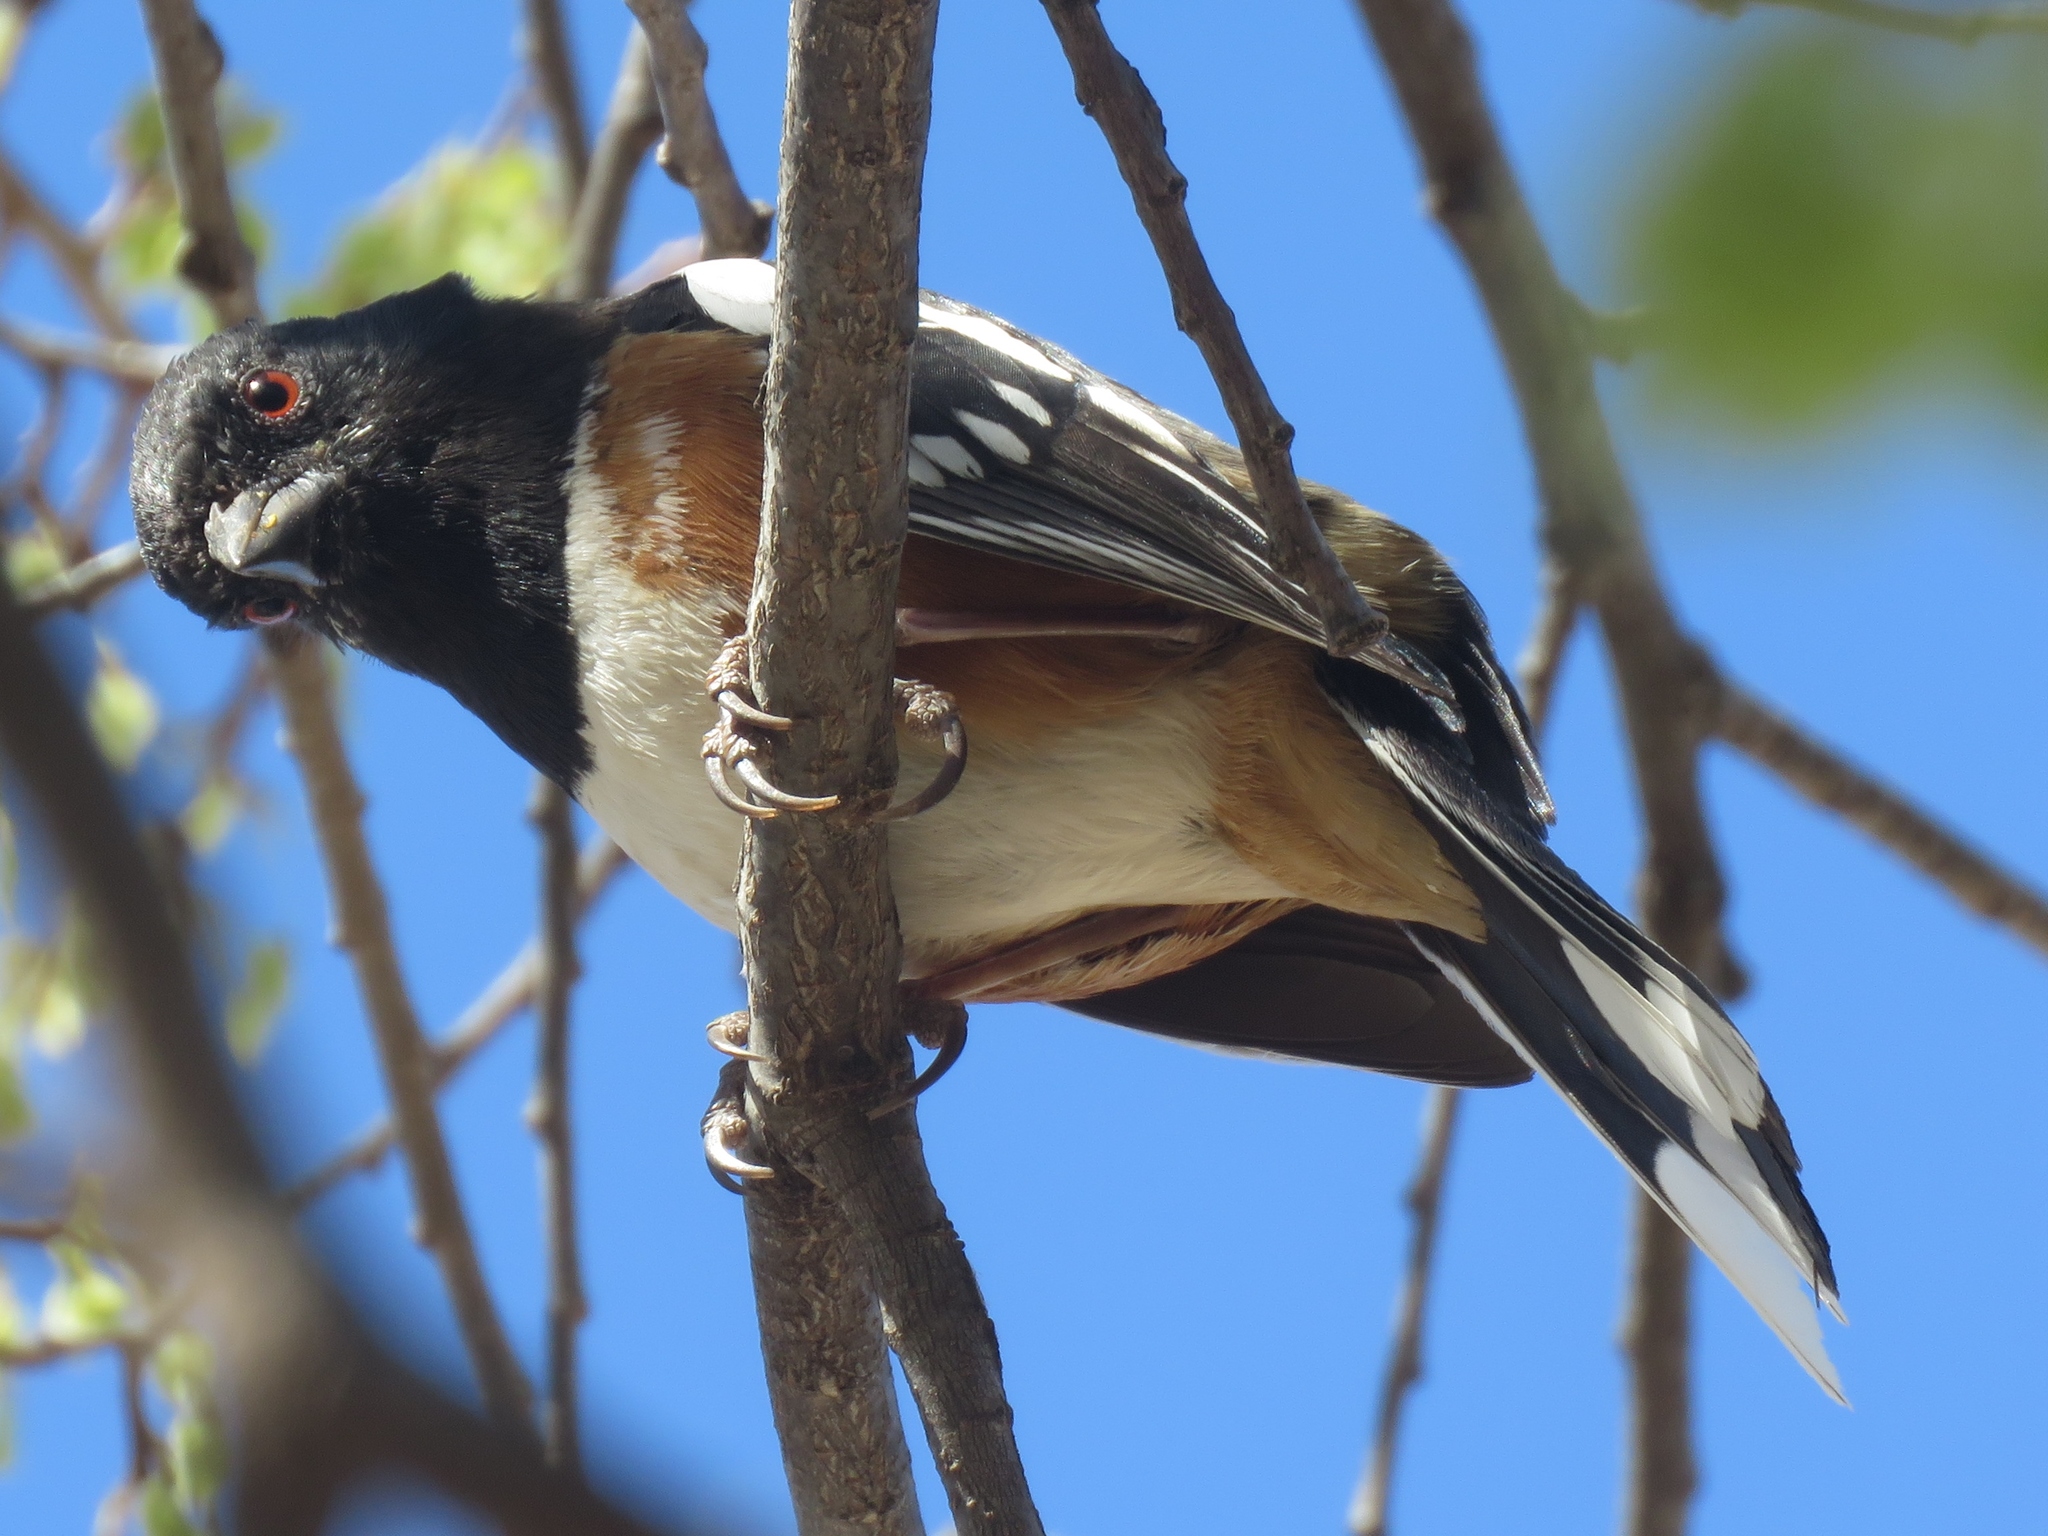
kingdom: Animalia
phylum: Chordata
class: Aves
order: Passeriformes
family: Passerellidae
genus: Pipilo
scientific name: Pipilo maculatus
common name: Spotted towhee
